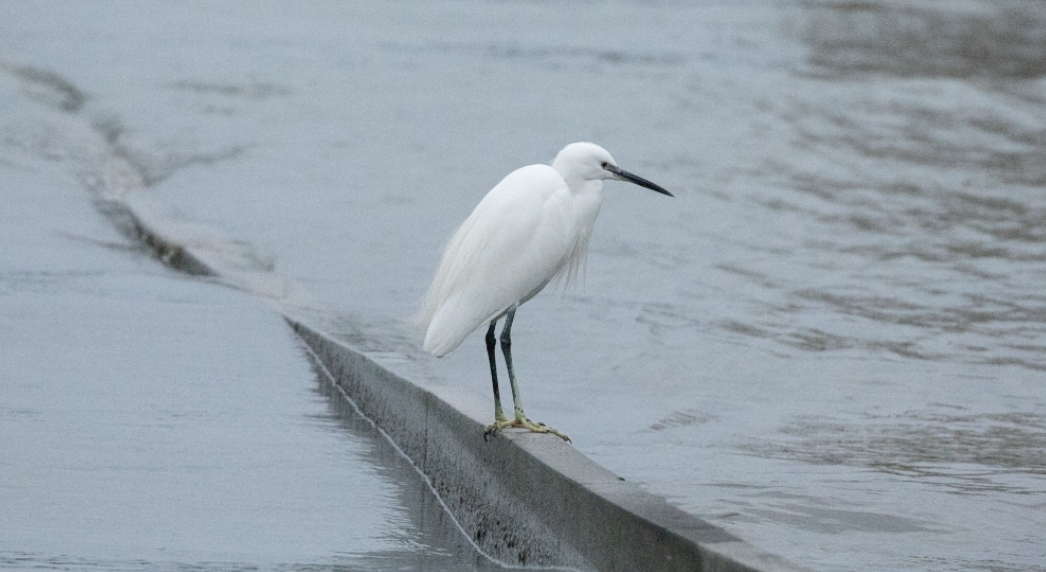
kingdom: Animalia
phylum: Chordata
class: Aves
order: Pelecaniformes
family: Ardeidae
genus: Egretta
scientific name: Egretta garzetta
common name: Little egret
